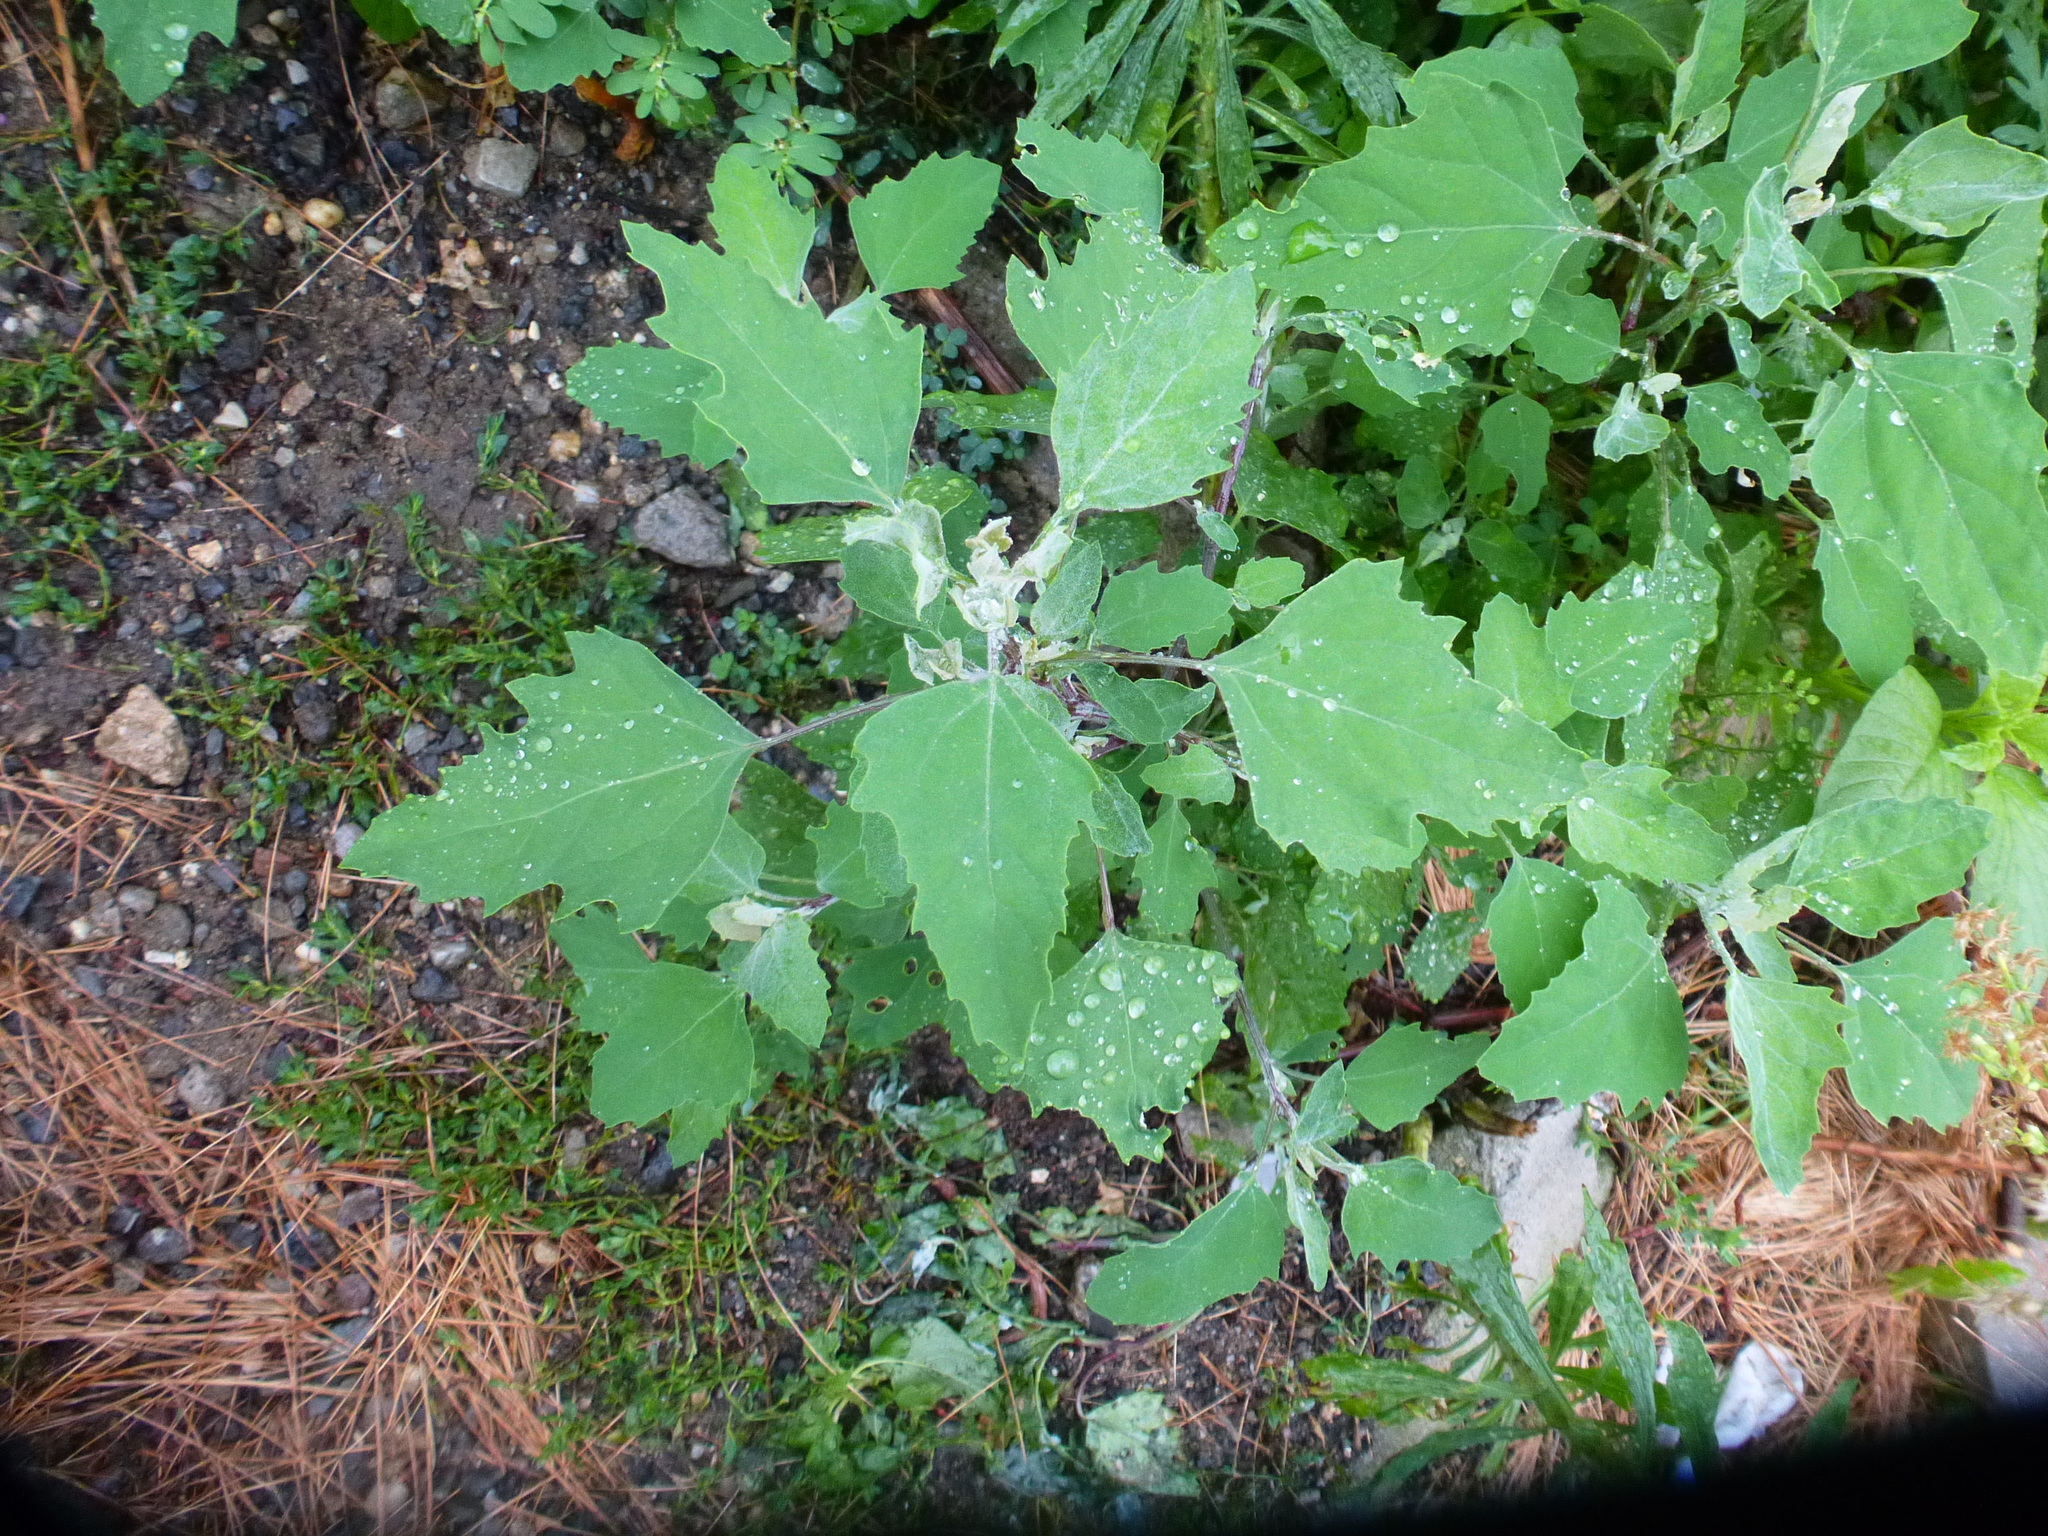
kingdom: Plantae
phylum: Tracheophyta
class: Magnoliopsida
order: Caryophyllales
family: Amaranthaceae
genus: Chenopodium
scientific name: Chenopodium album
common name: Fat-hen
